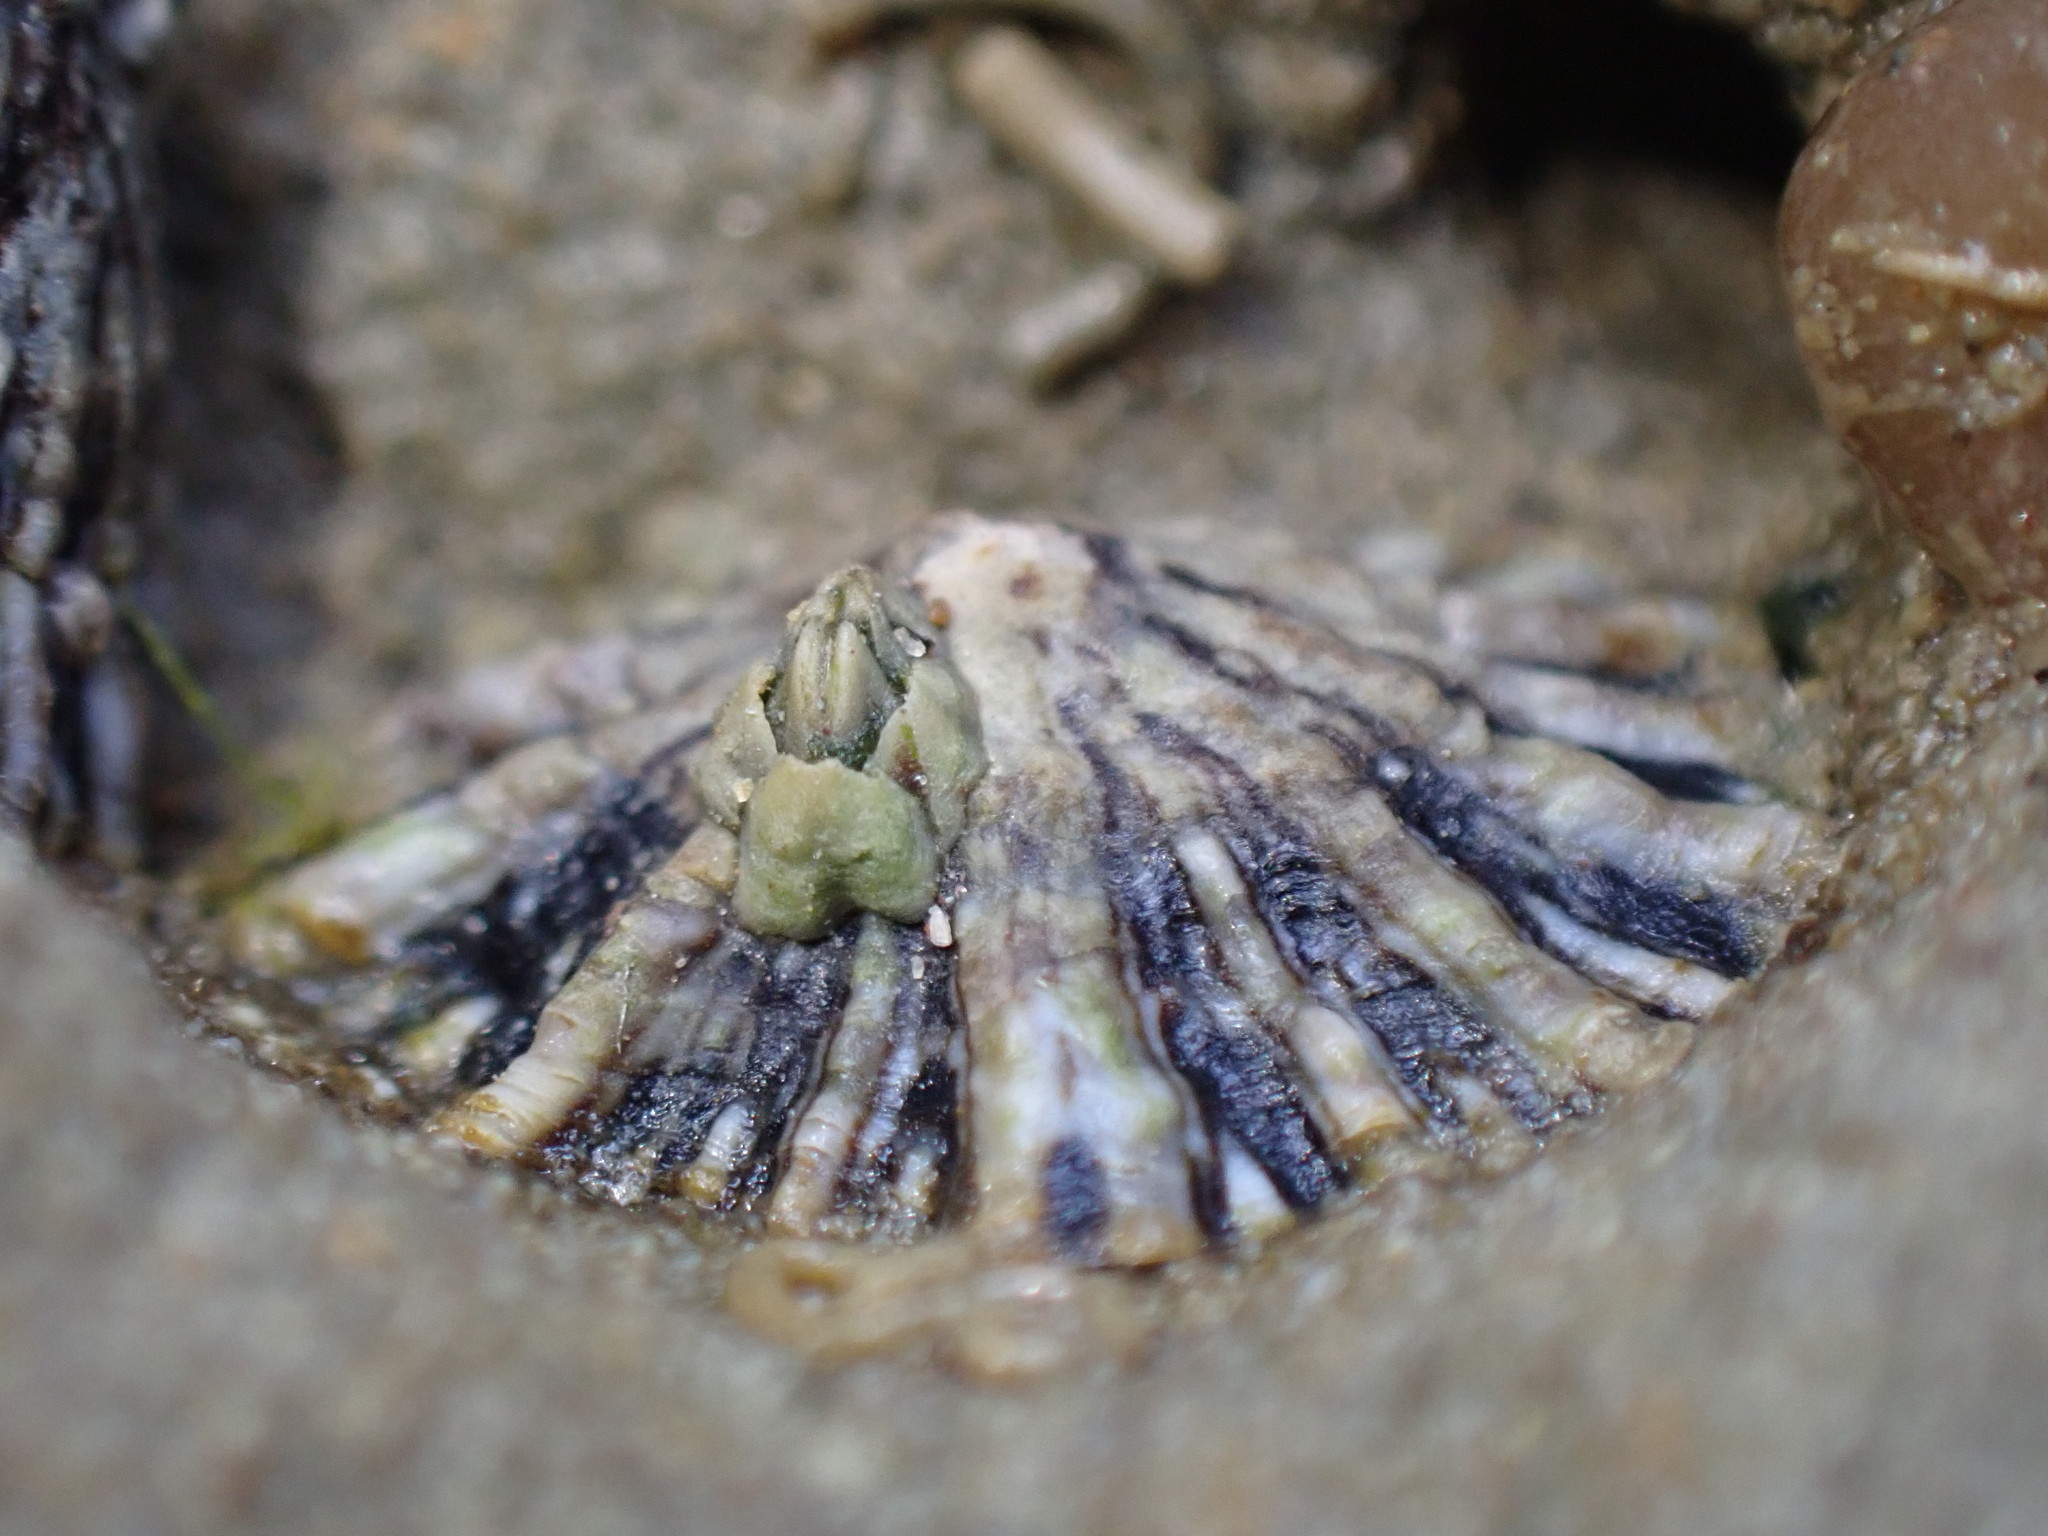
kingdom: Animalia
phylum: Mollusca
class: Gastropoda
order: Siphonariida
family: Siphonariidae
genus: Siphonaria
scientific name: Siphonaria australis
